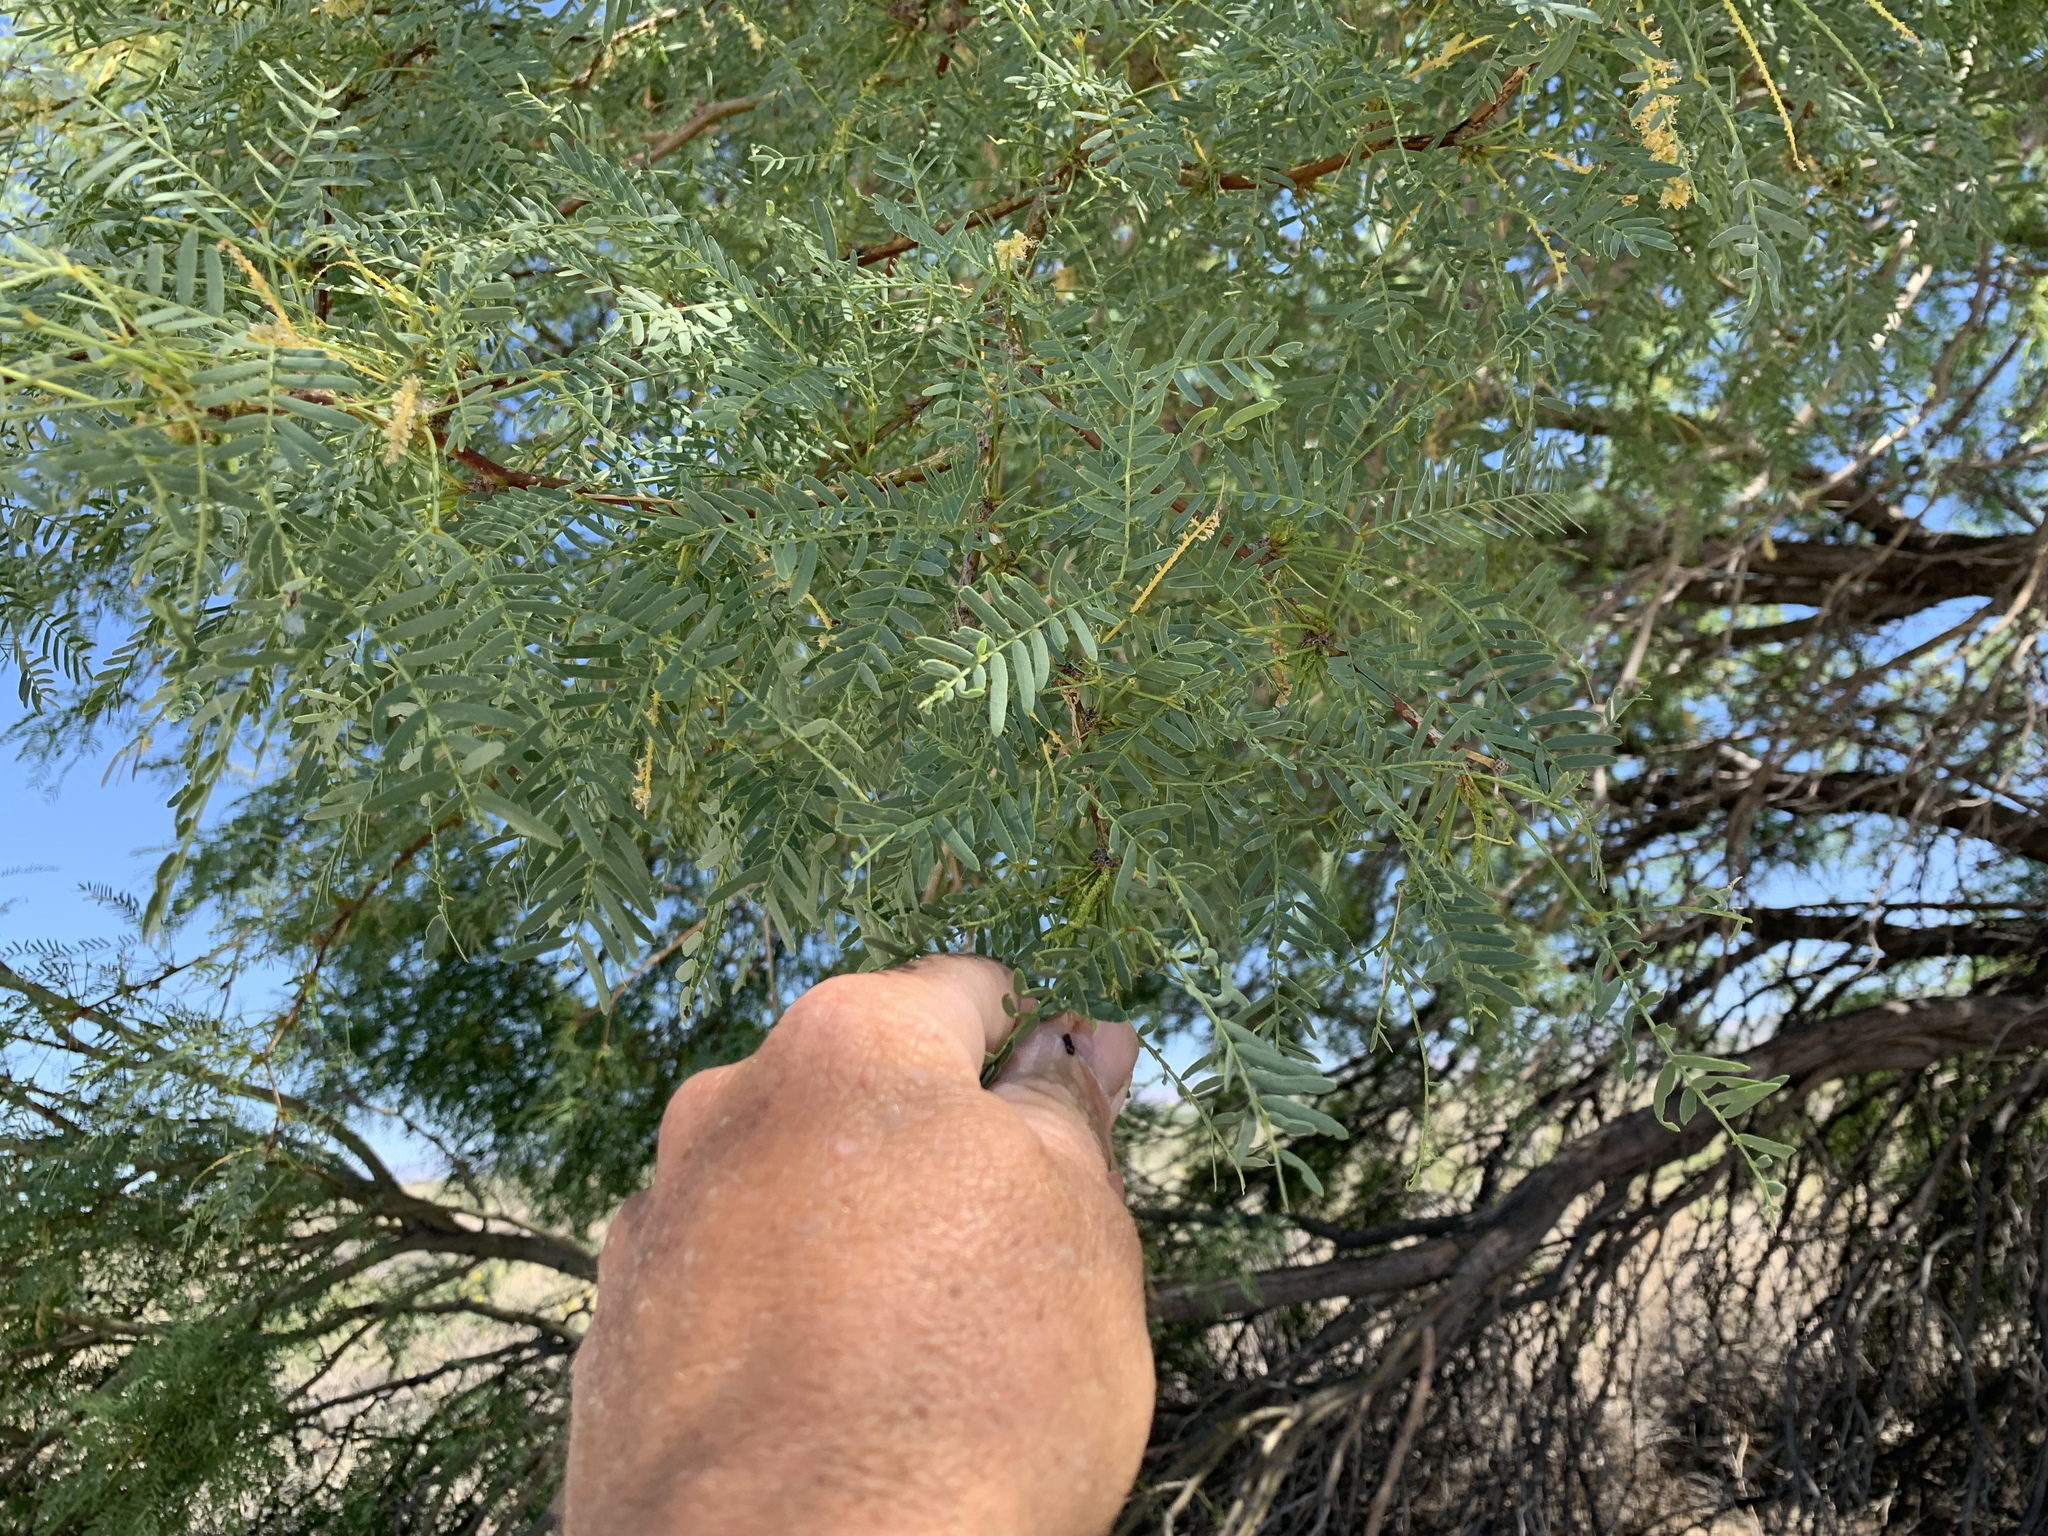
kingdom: Plantae
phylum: Tracheophyta
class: Magnoliopsida
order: Fabales
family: Fabaceae
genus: Prosopis
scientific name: Prosopis pubescens
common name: Screw-bean
